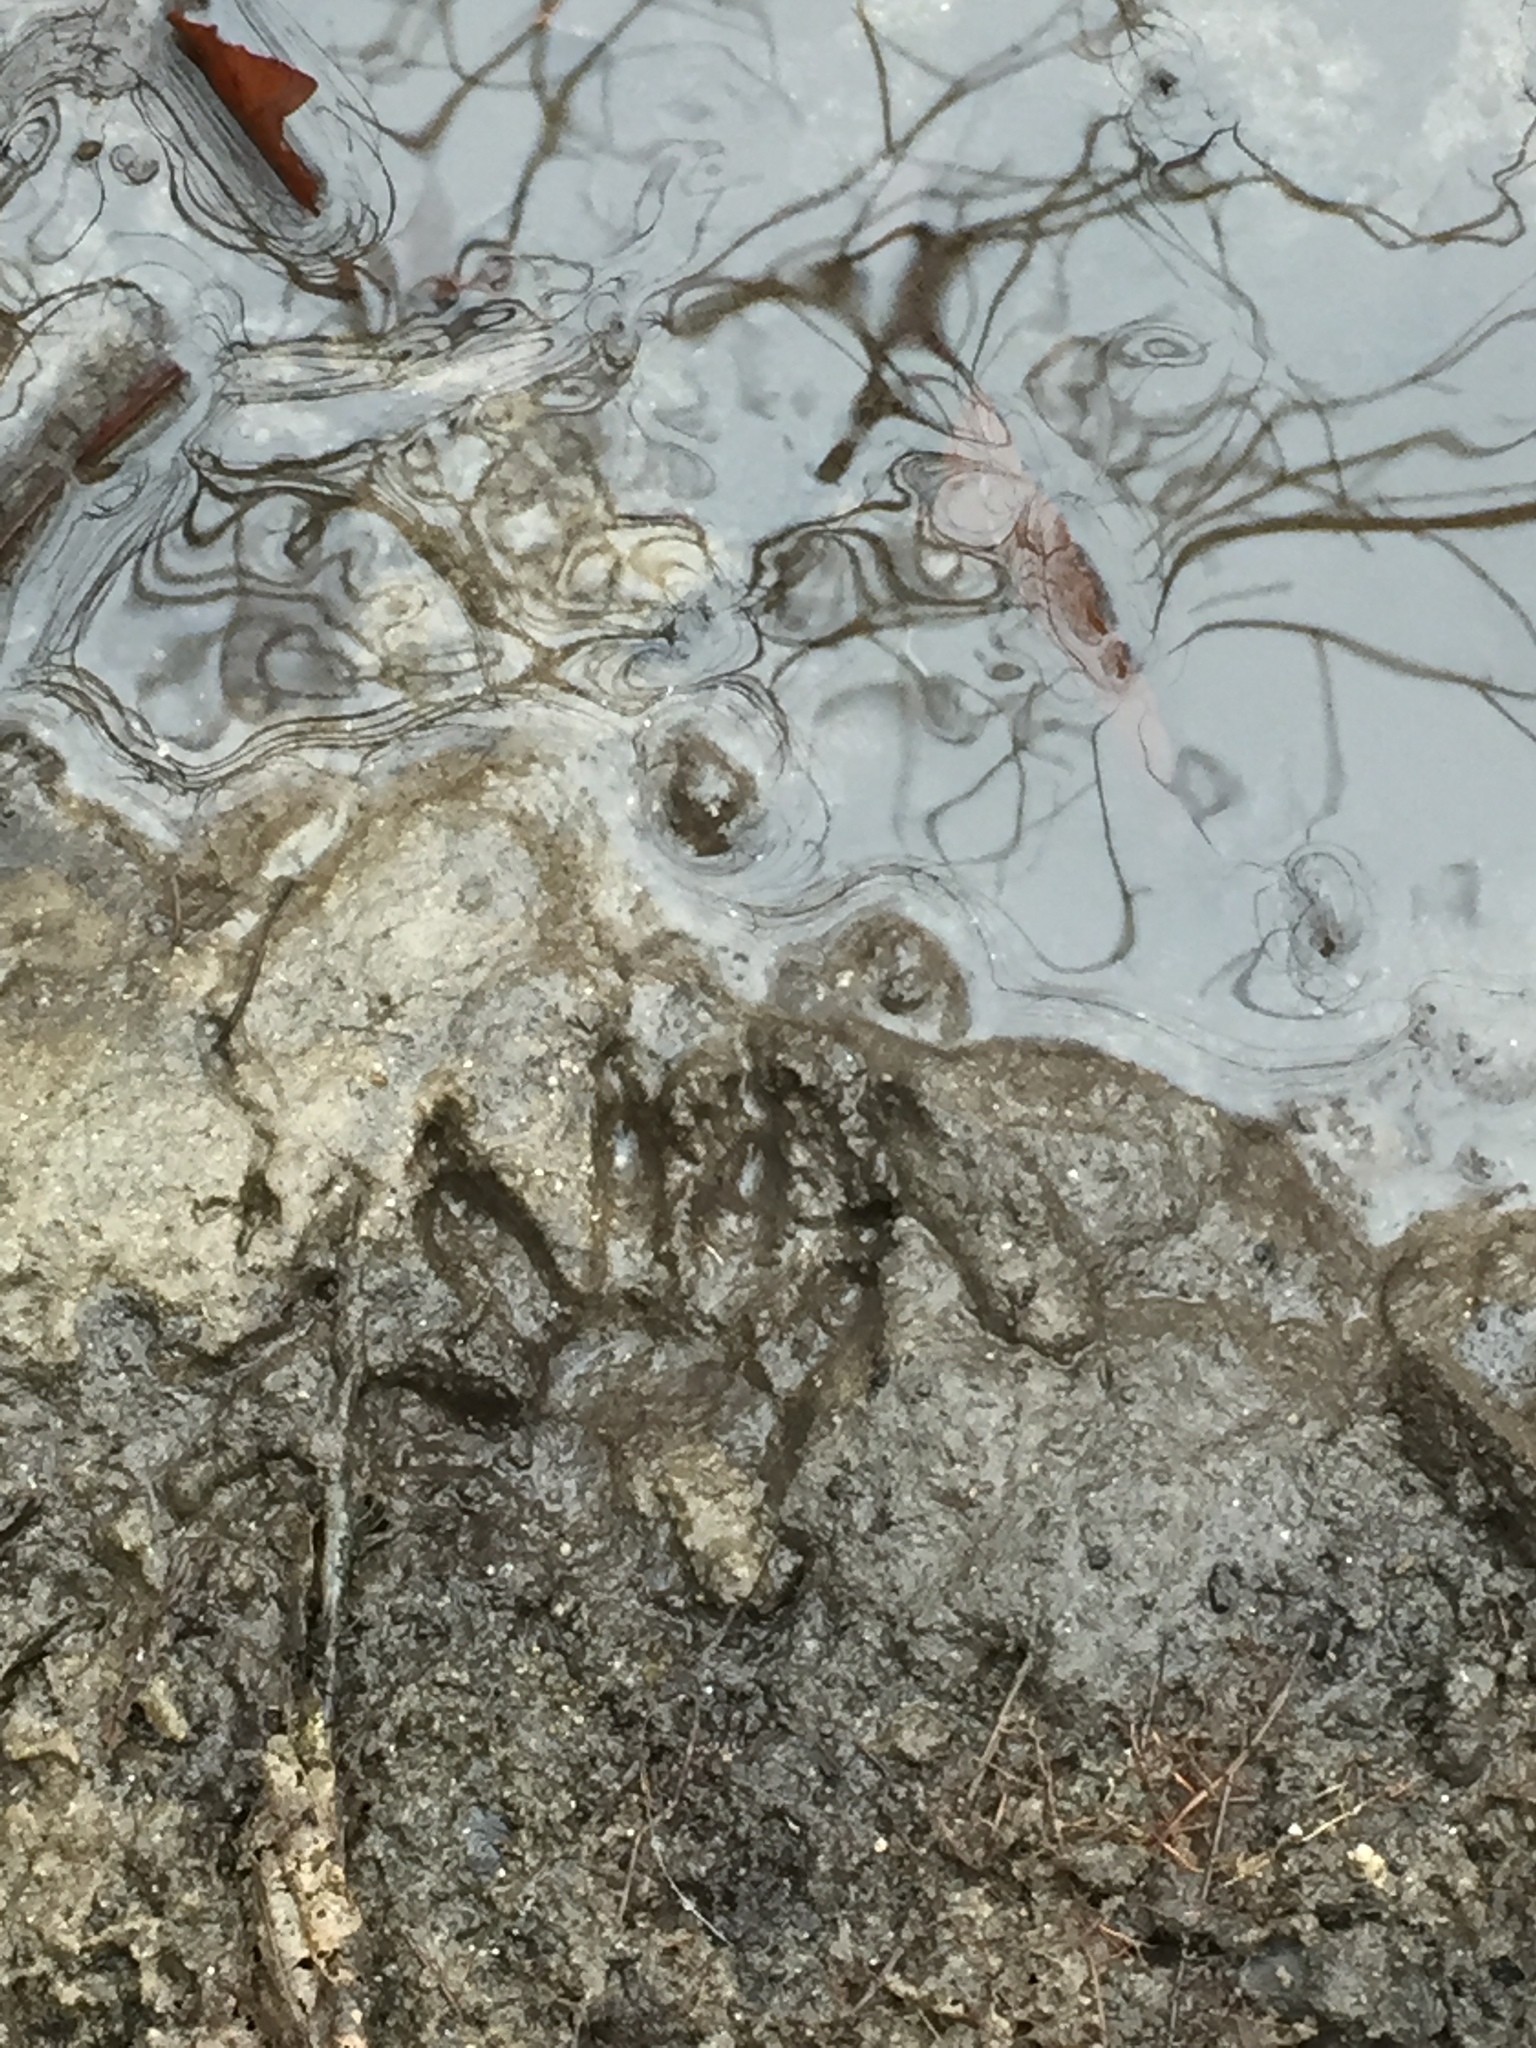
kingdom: Animalia
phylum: Chordata
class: Mammalia
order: Carnivora
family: Procyonidae
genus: Procyon
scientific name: Procyon lotor
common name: Raccoon
